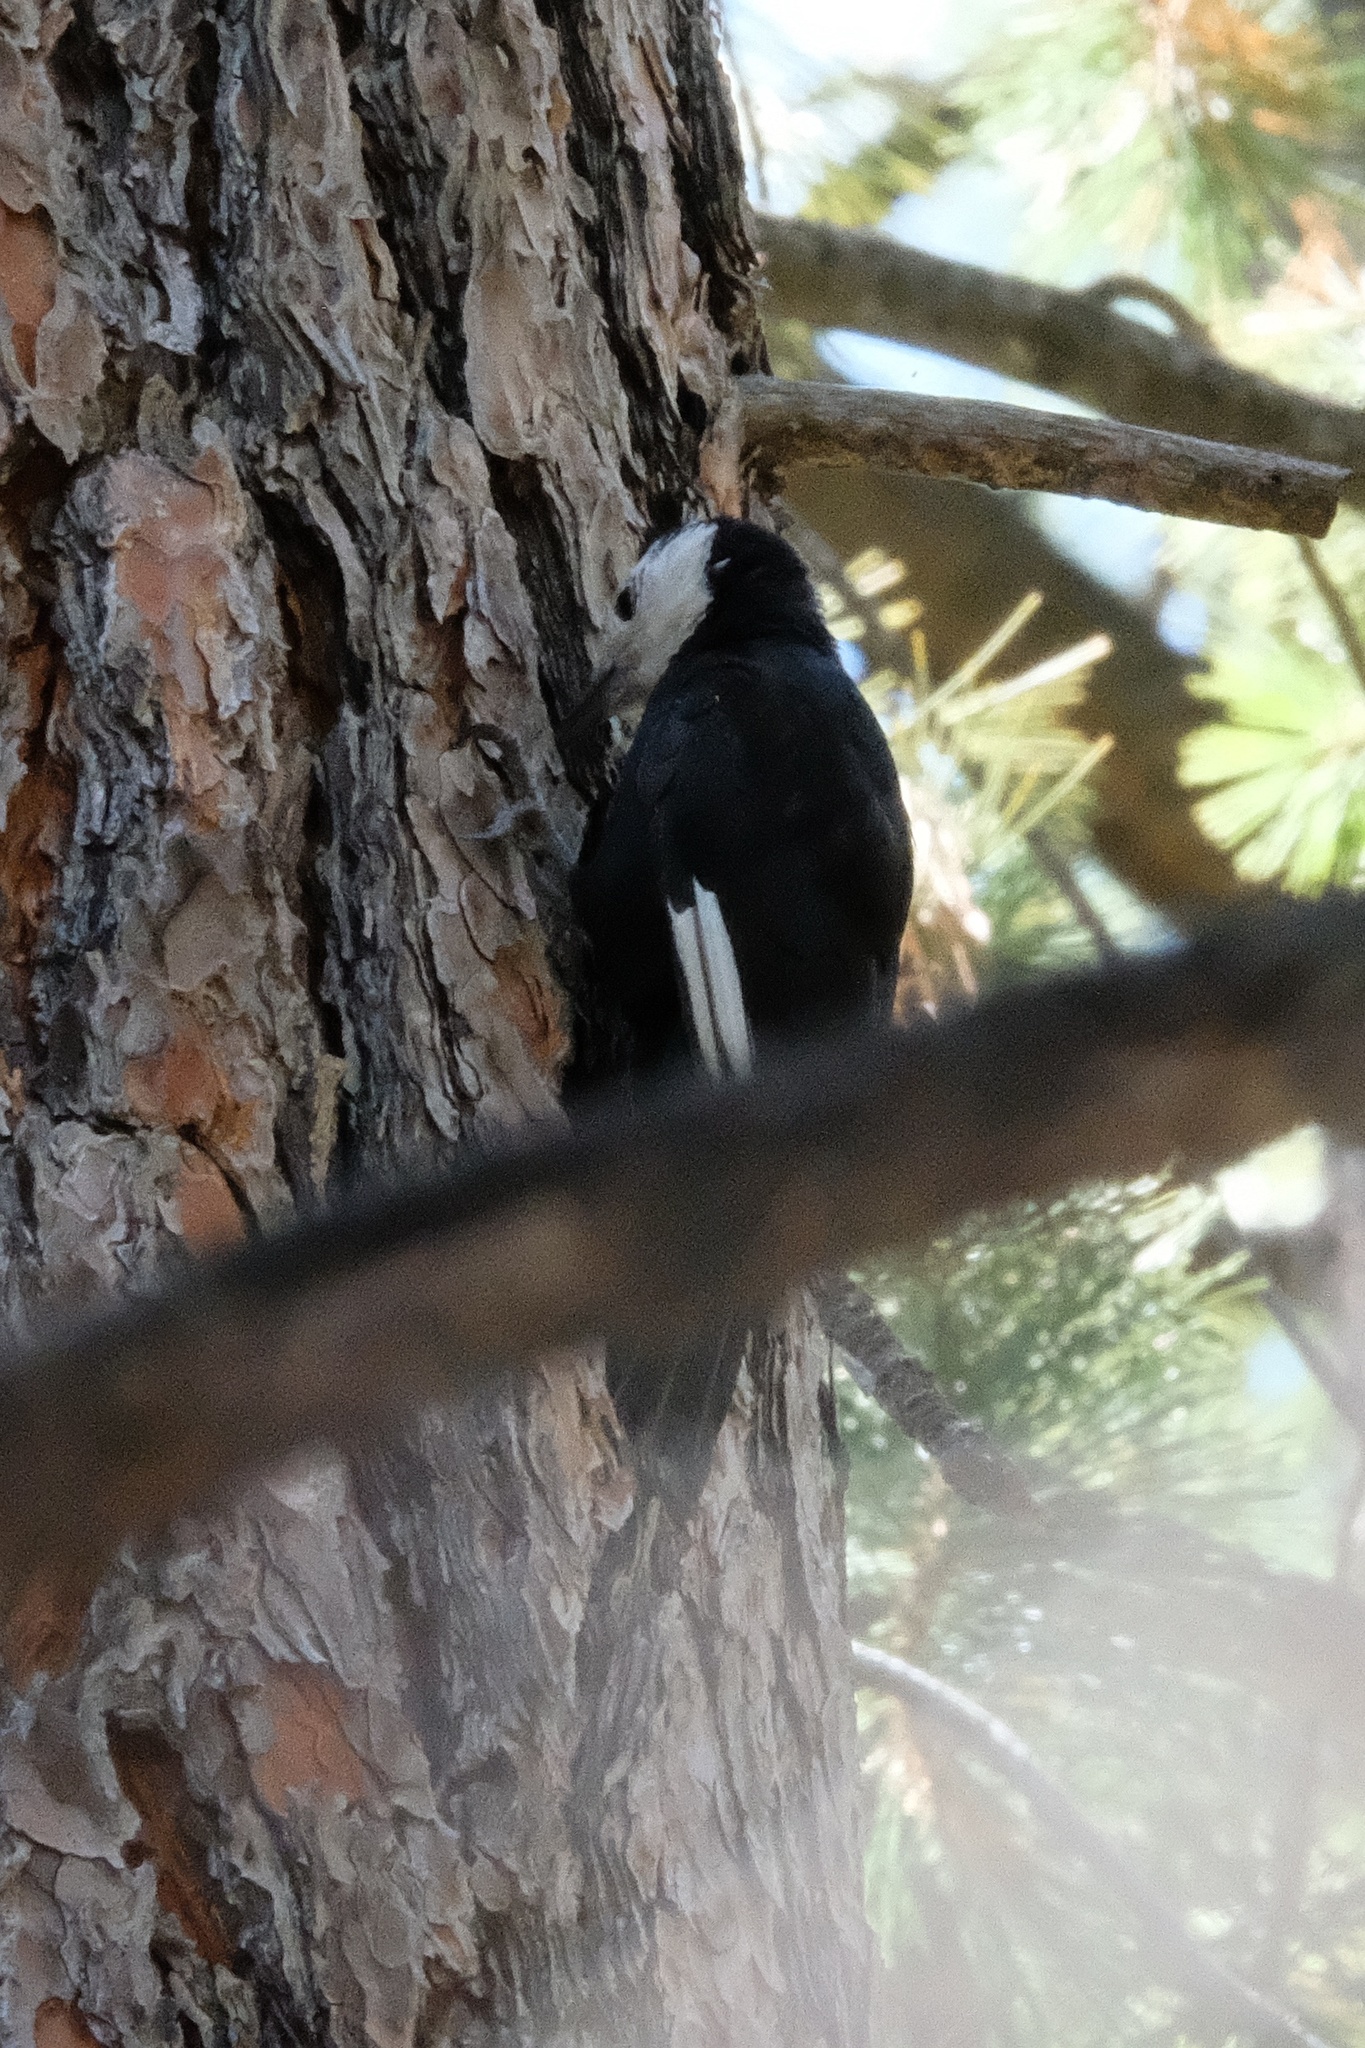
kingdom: Animalia
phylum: Chordata
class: Aves
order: Piciformes
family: Picidae
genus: Leuconotopicus
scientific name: Leuconotopicus albolarvatus
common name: White-headed woodpecker
